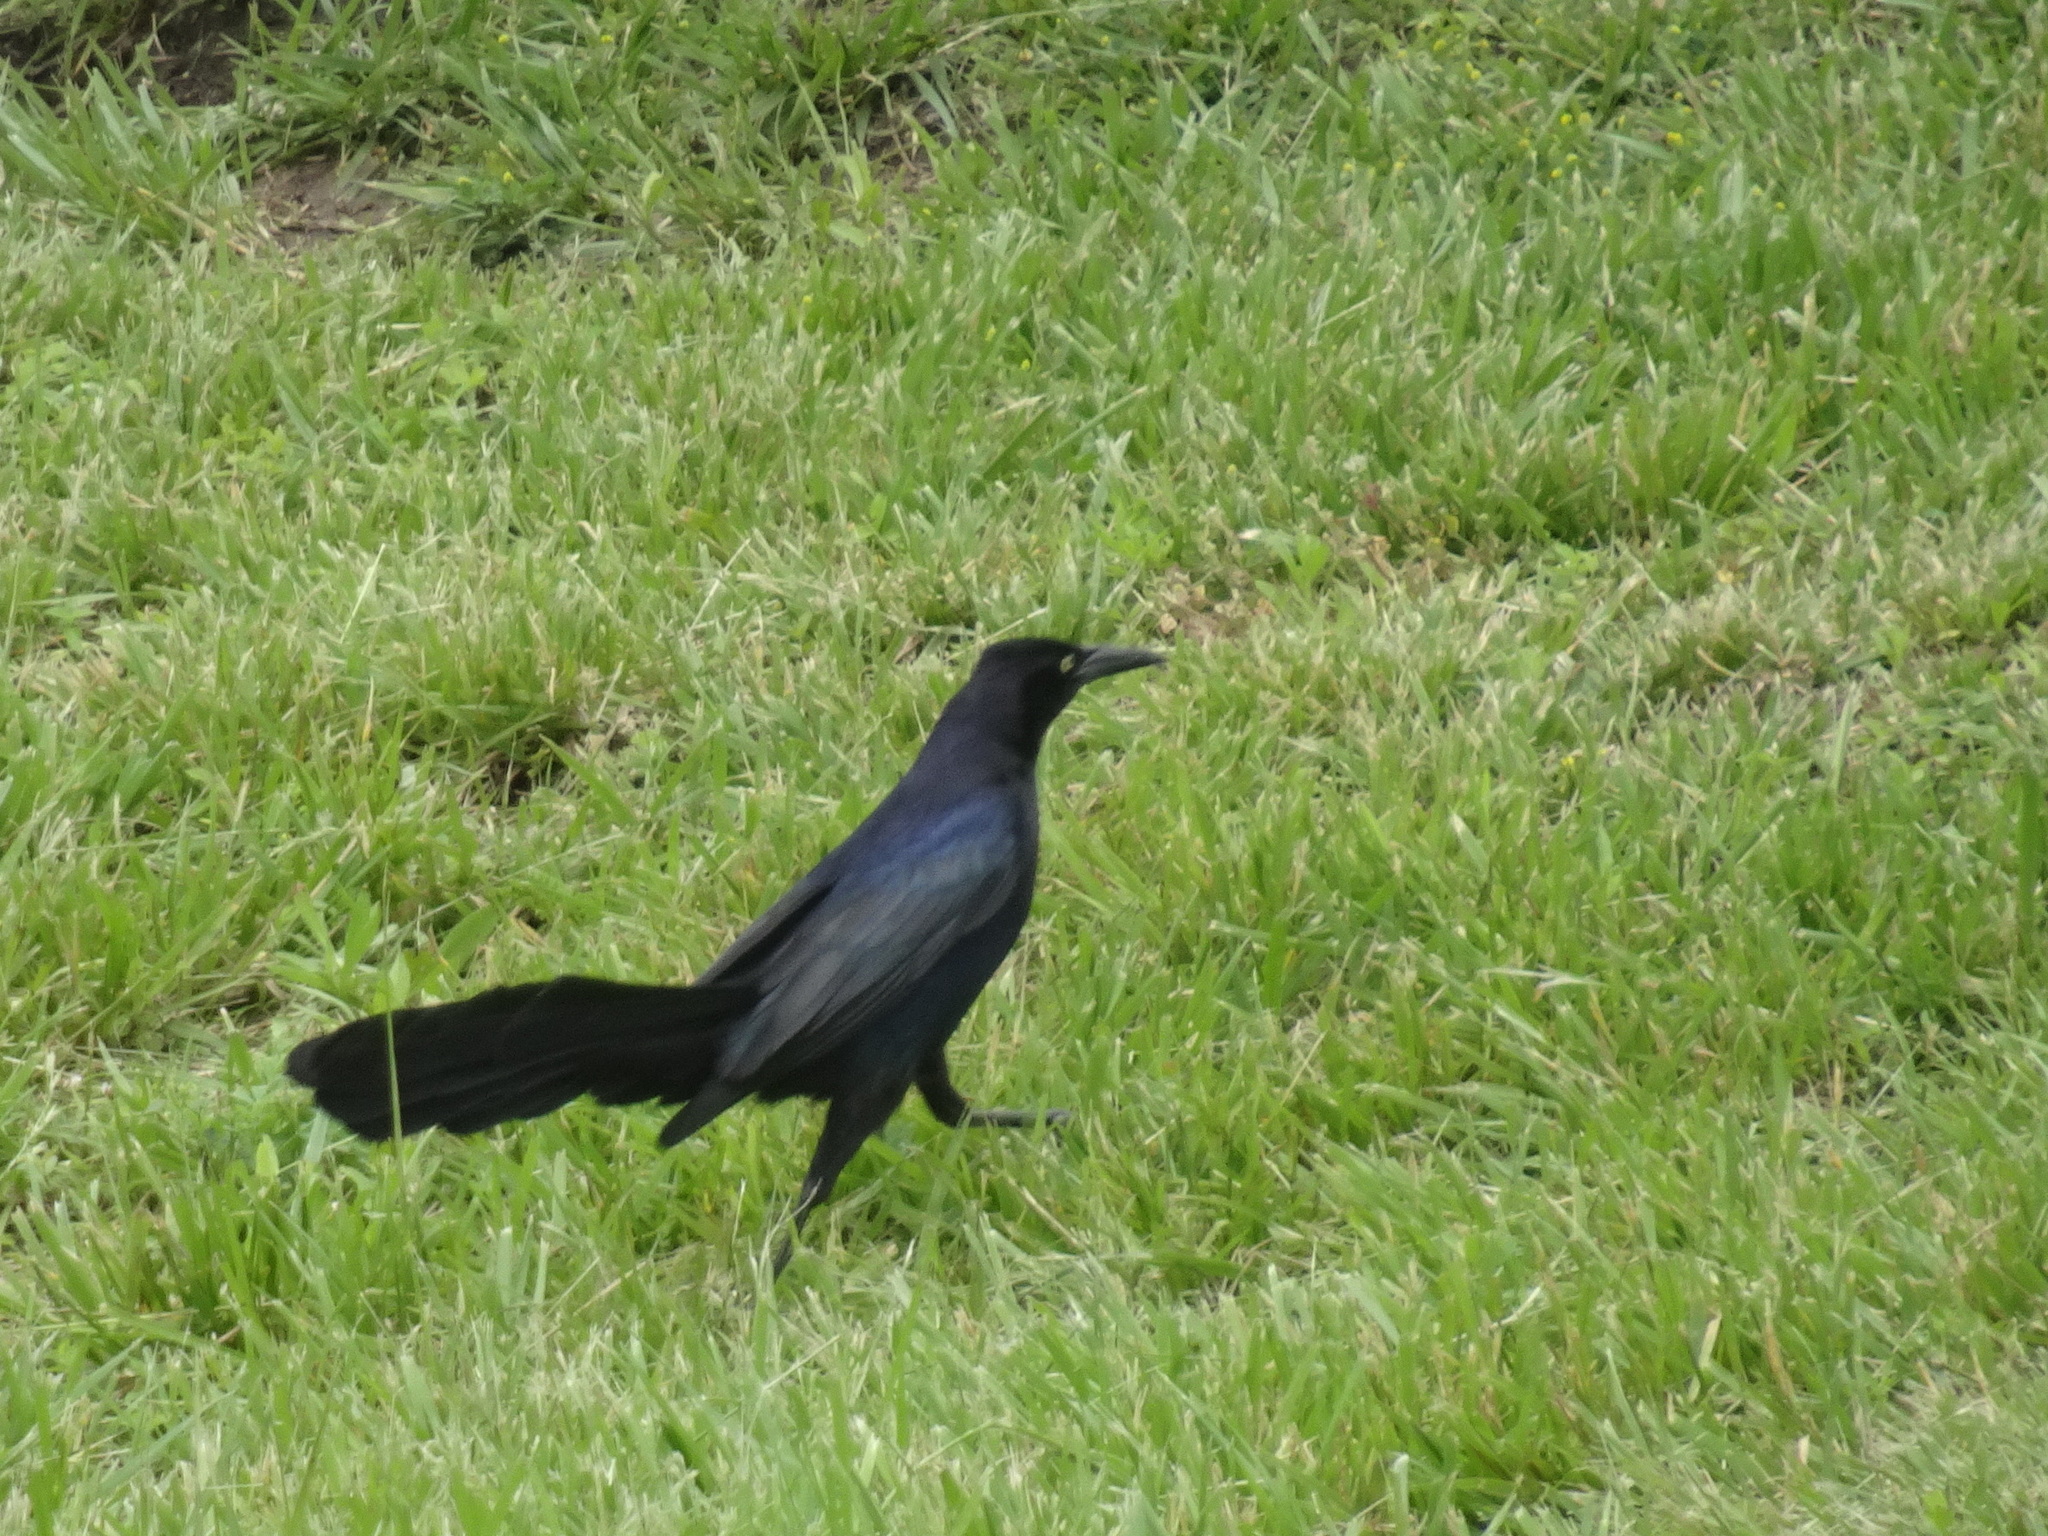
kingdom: Animalia
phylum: Chordata
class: Aves
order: Passeriformes
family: Icteridae
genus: Quiscalus
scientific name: Quiscalus mexicanus
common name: Great-tailed grackle
